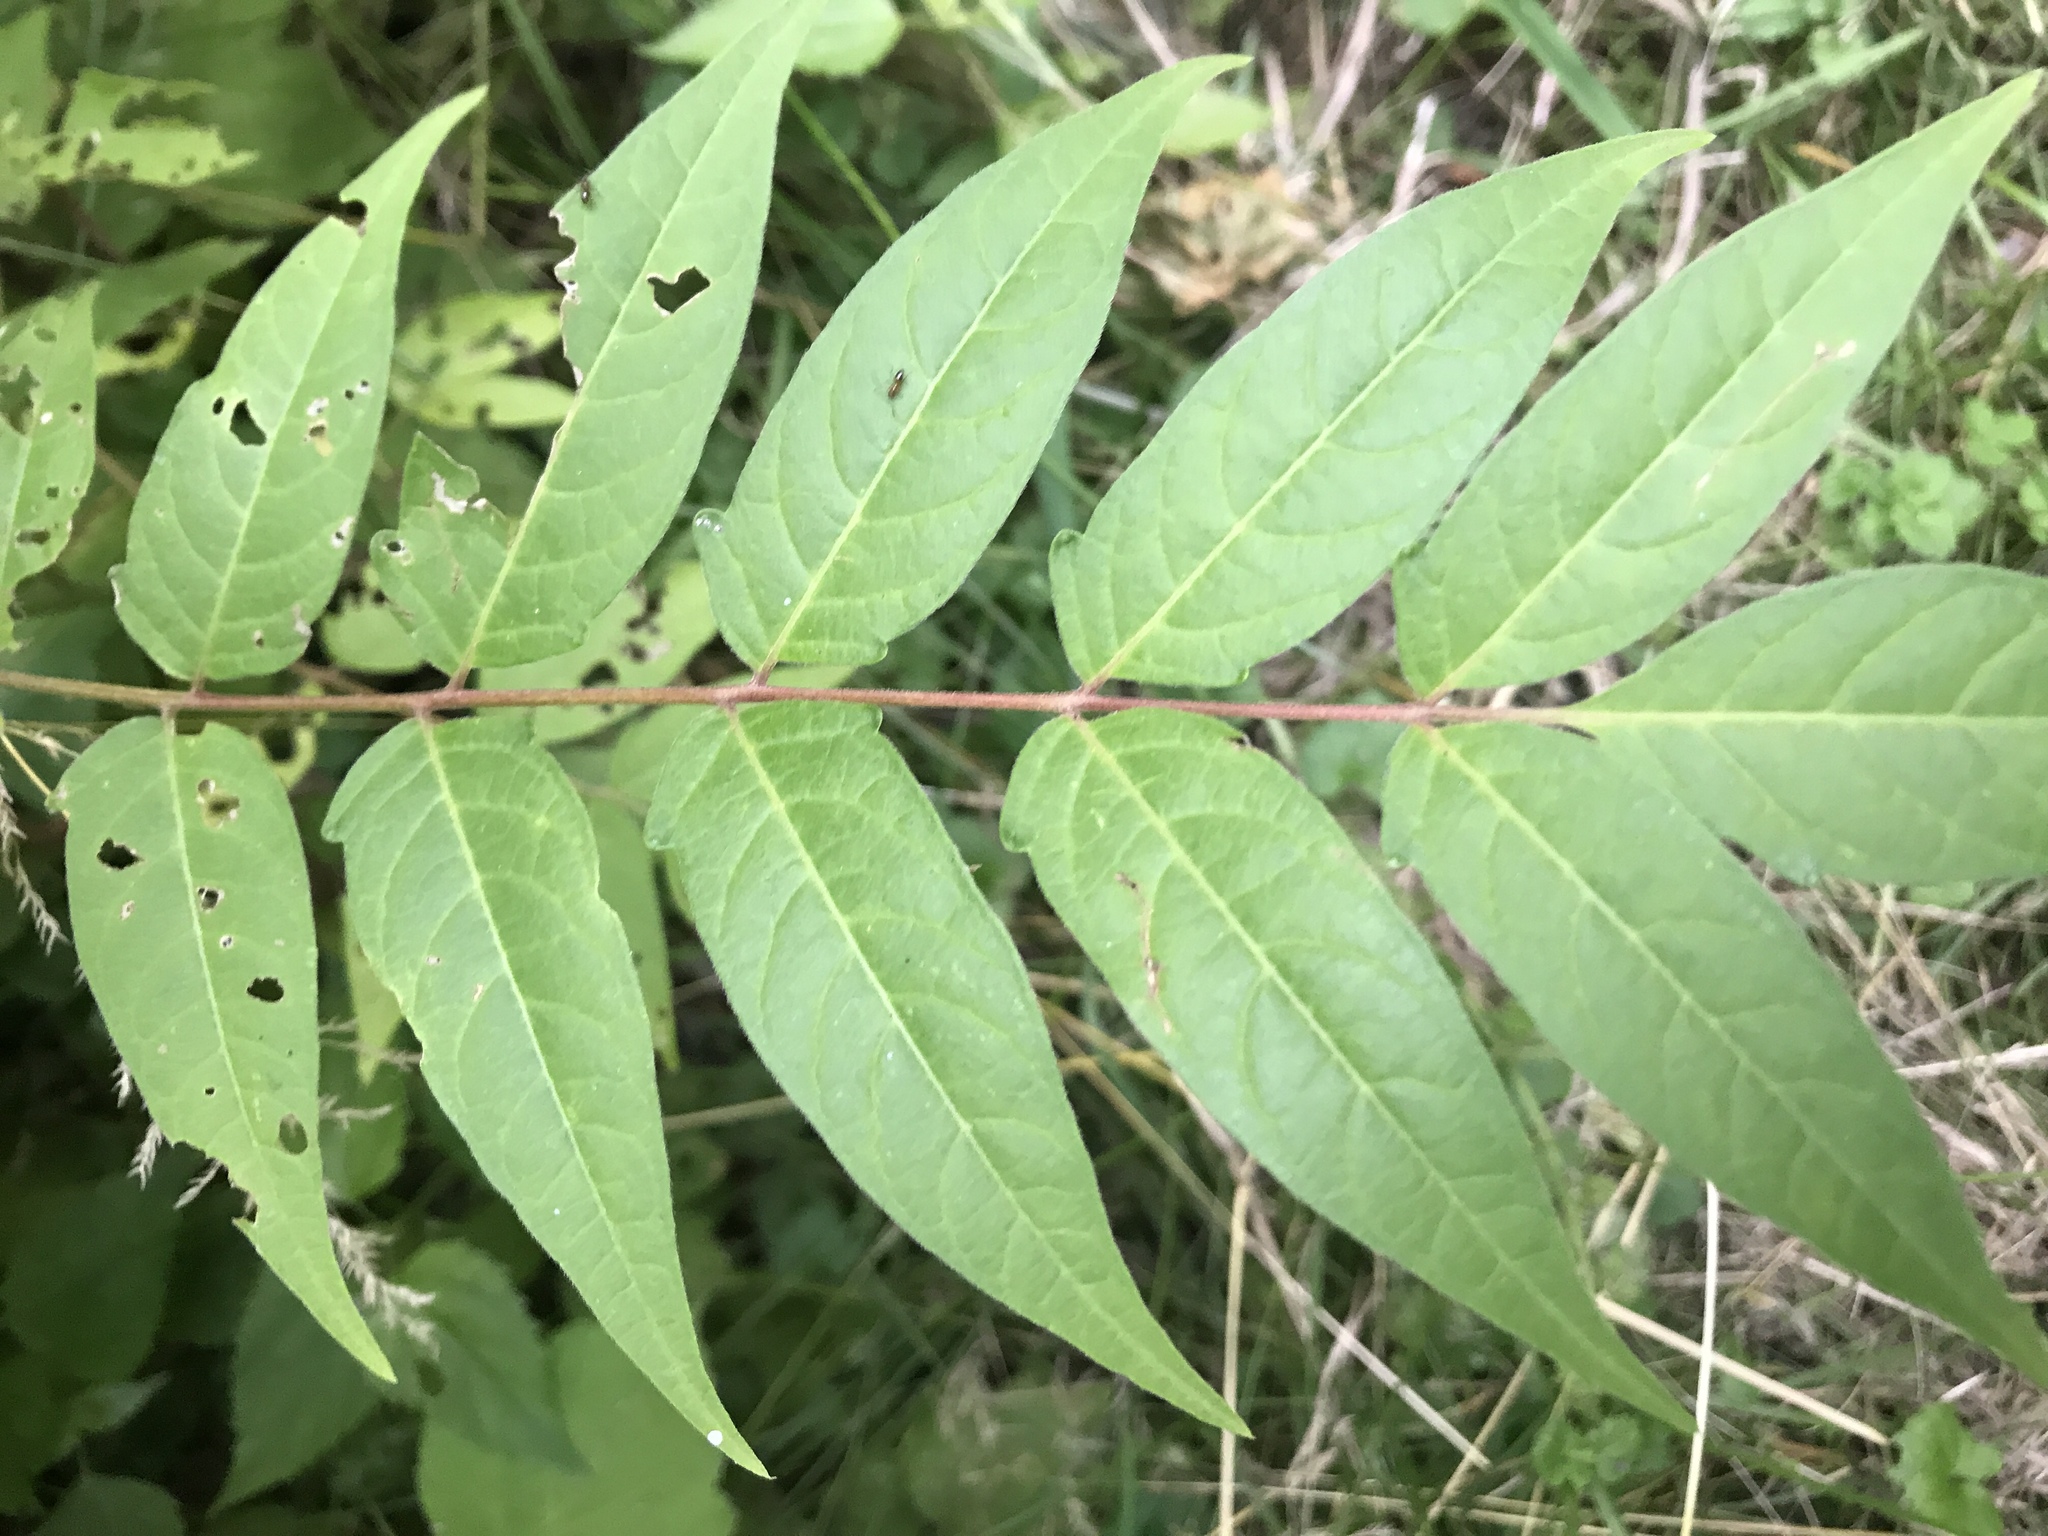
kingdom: Plantae
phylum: Tracheophyta
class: Magnoliopsida
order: Sapindales
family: Simaroubaceae
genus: Ailanthus
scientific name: Ailanthus altissima
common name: Tree-of-heaven
